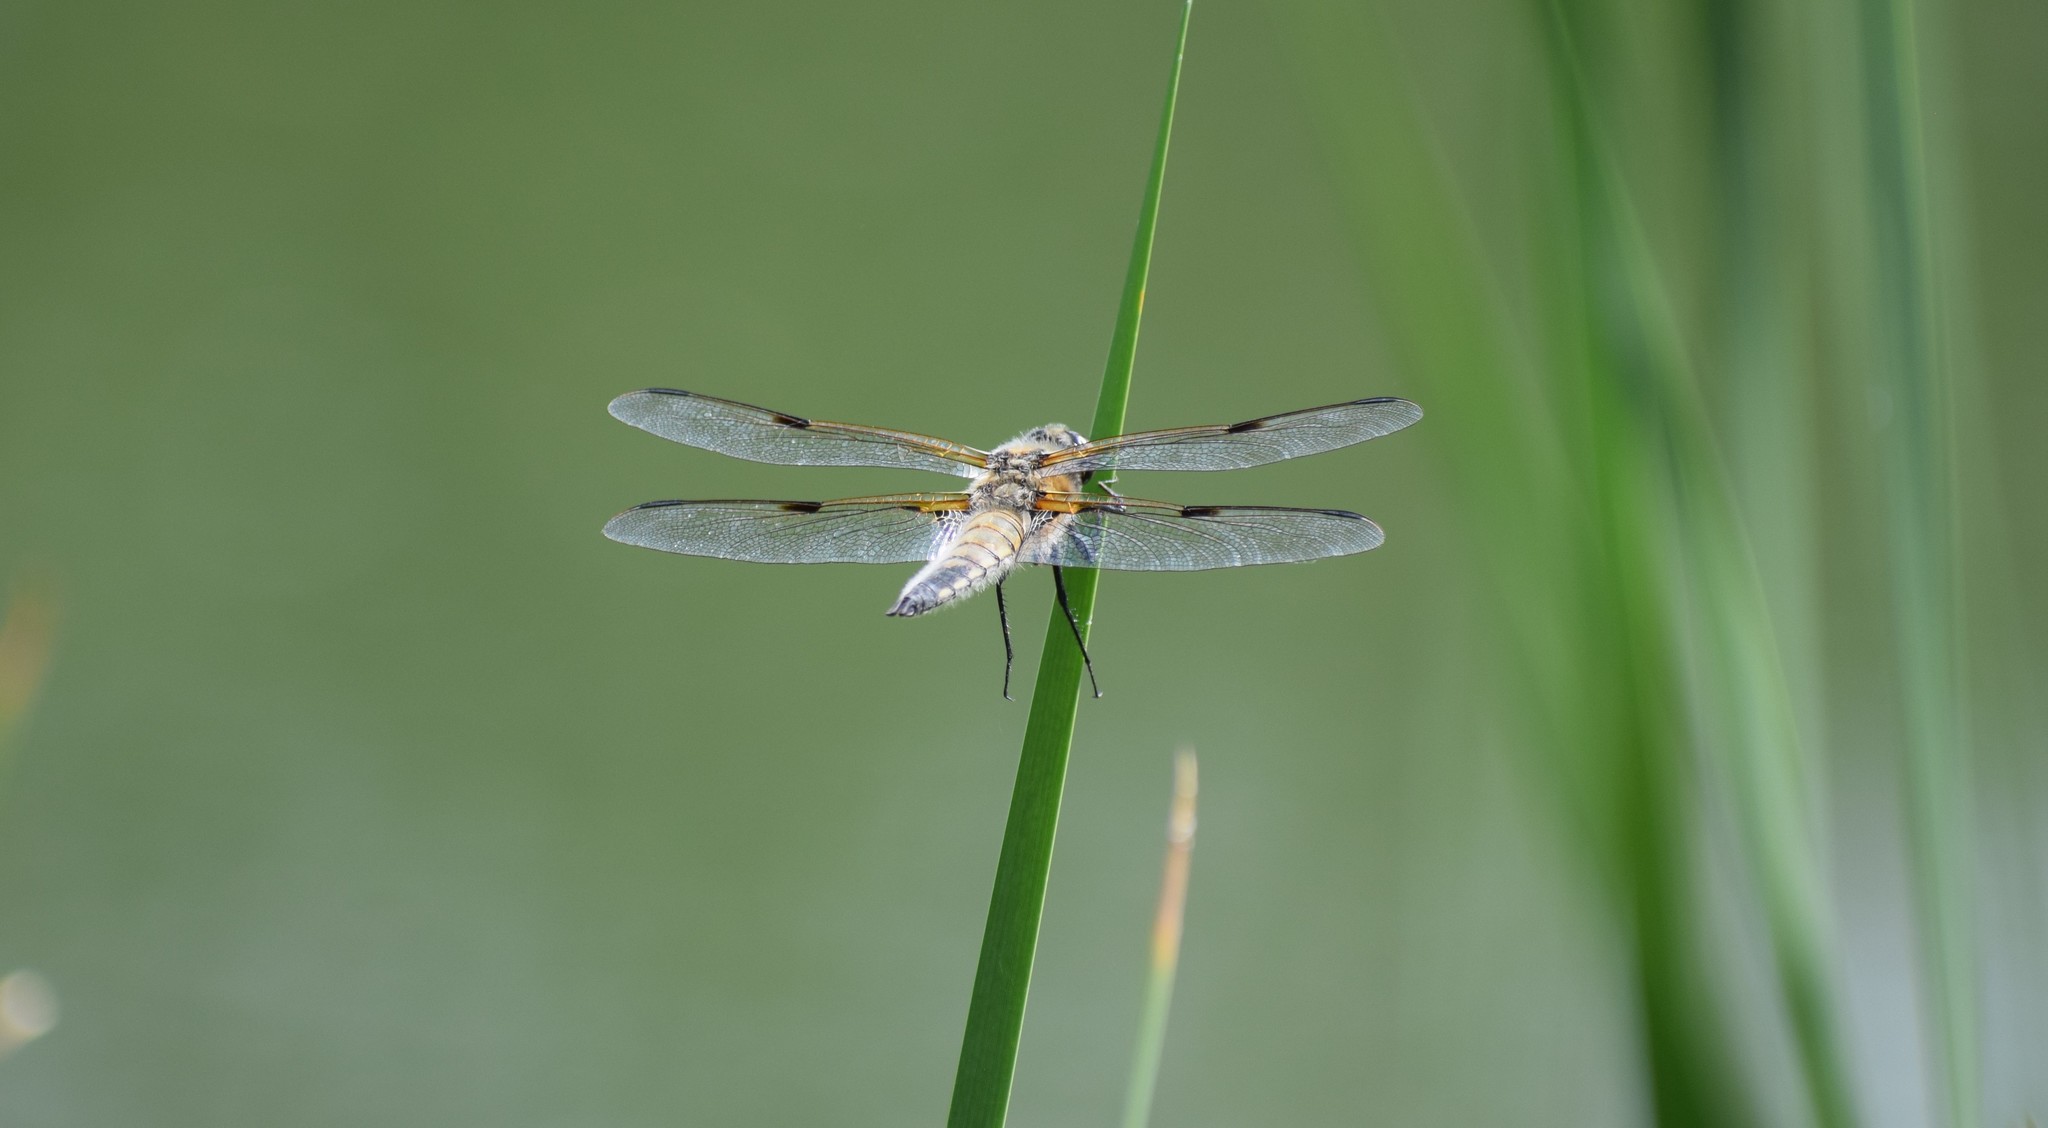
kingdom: Animalia
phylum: Arthropoda
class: Insecta
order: Odonata
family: Libellulidae
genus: Libellula
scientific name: Libellula quadrimaculata
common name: Four-spotted chaser
